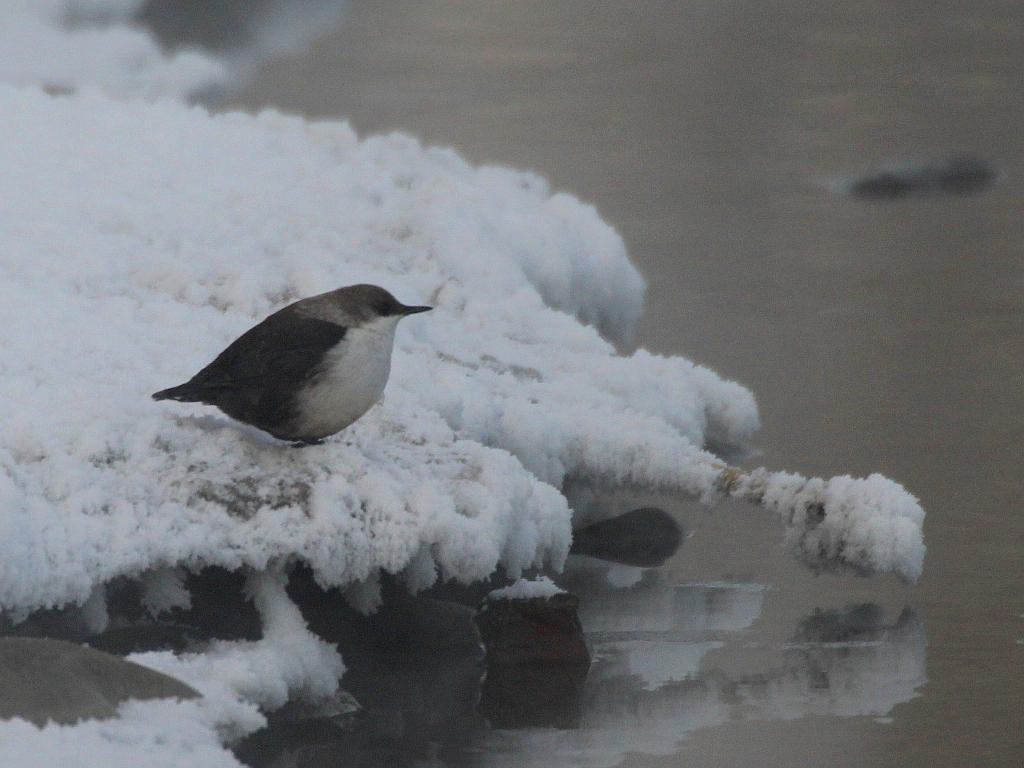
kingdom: Animalia
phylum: Chordata
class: Aves
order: Passeriformes
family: Cinclidae
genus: Cinclus
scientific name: Cinclus cinclus
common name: White-throated dipper
